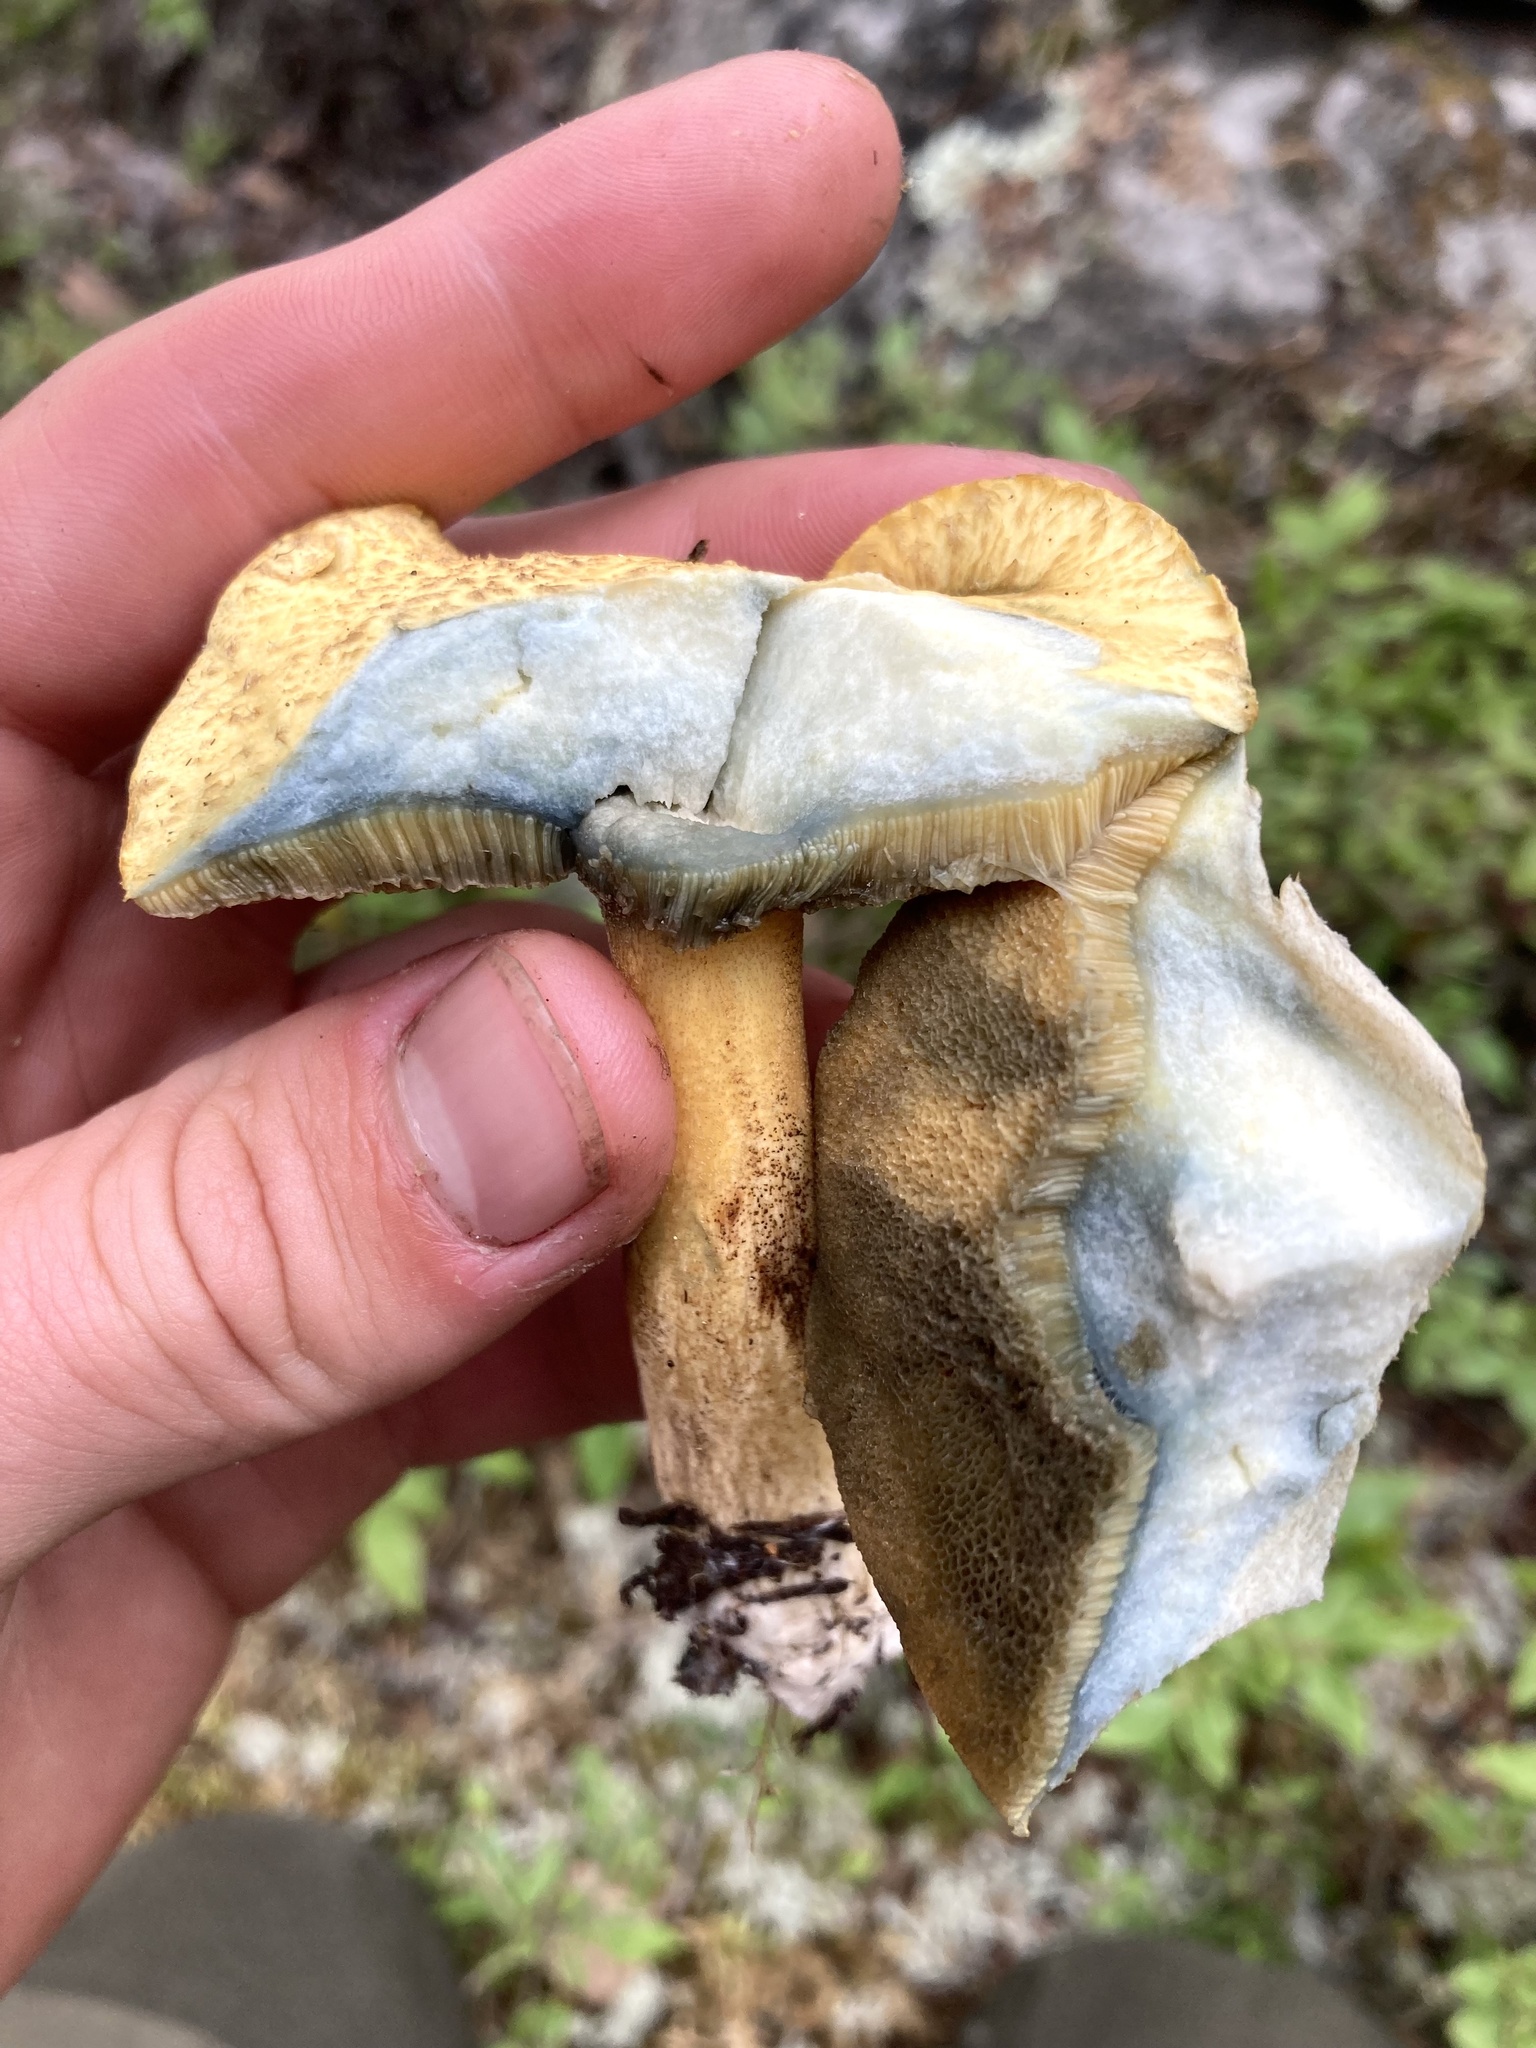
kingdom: Fungi
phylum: Basidiomycota
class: Agaricomycetes
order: Boletales
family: Suillaceae
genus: Suillus
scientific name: Suillus tomentosus
